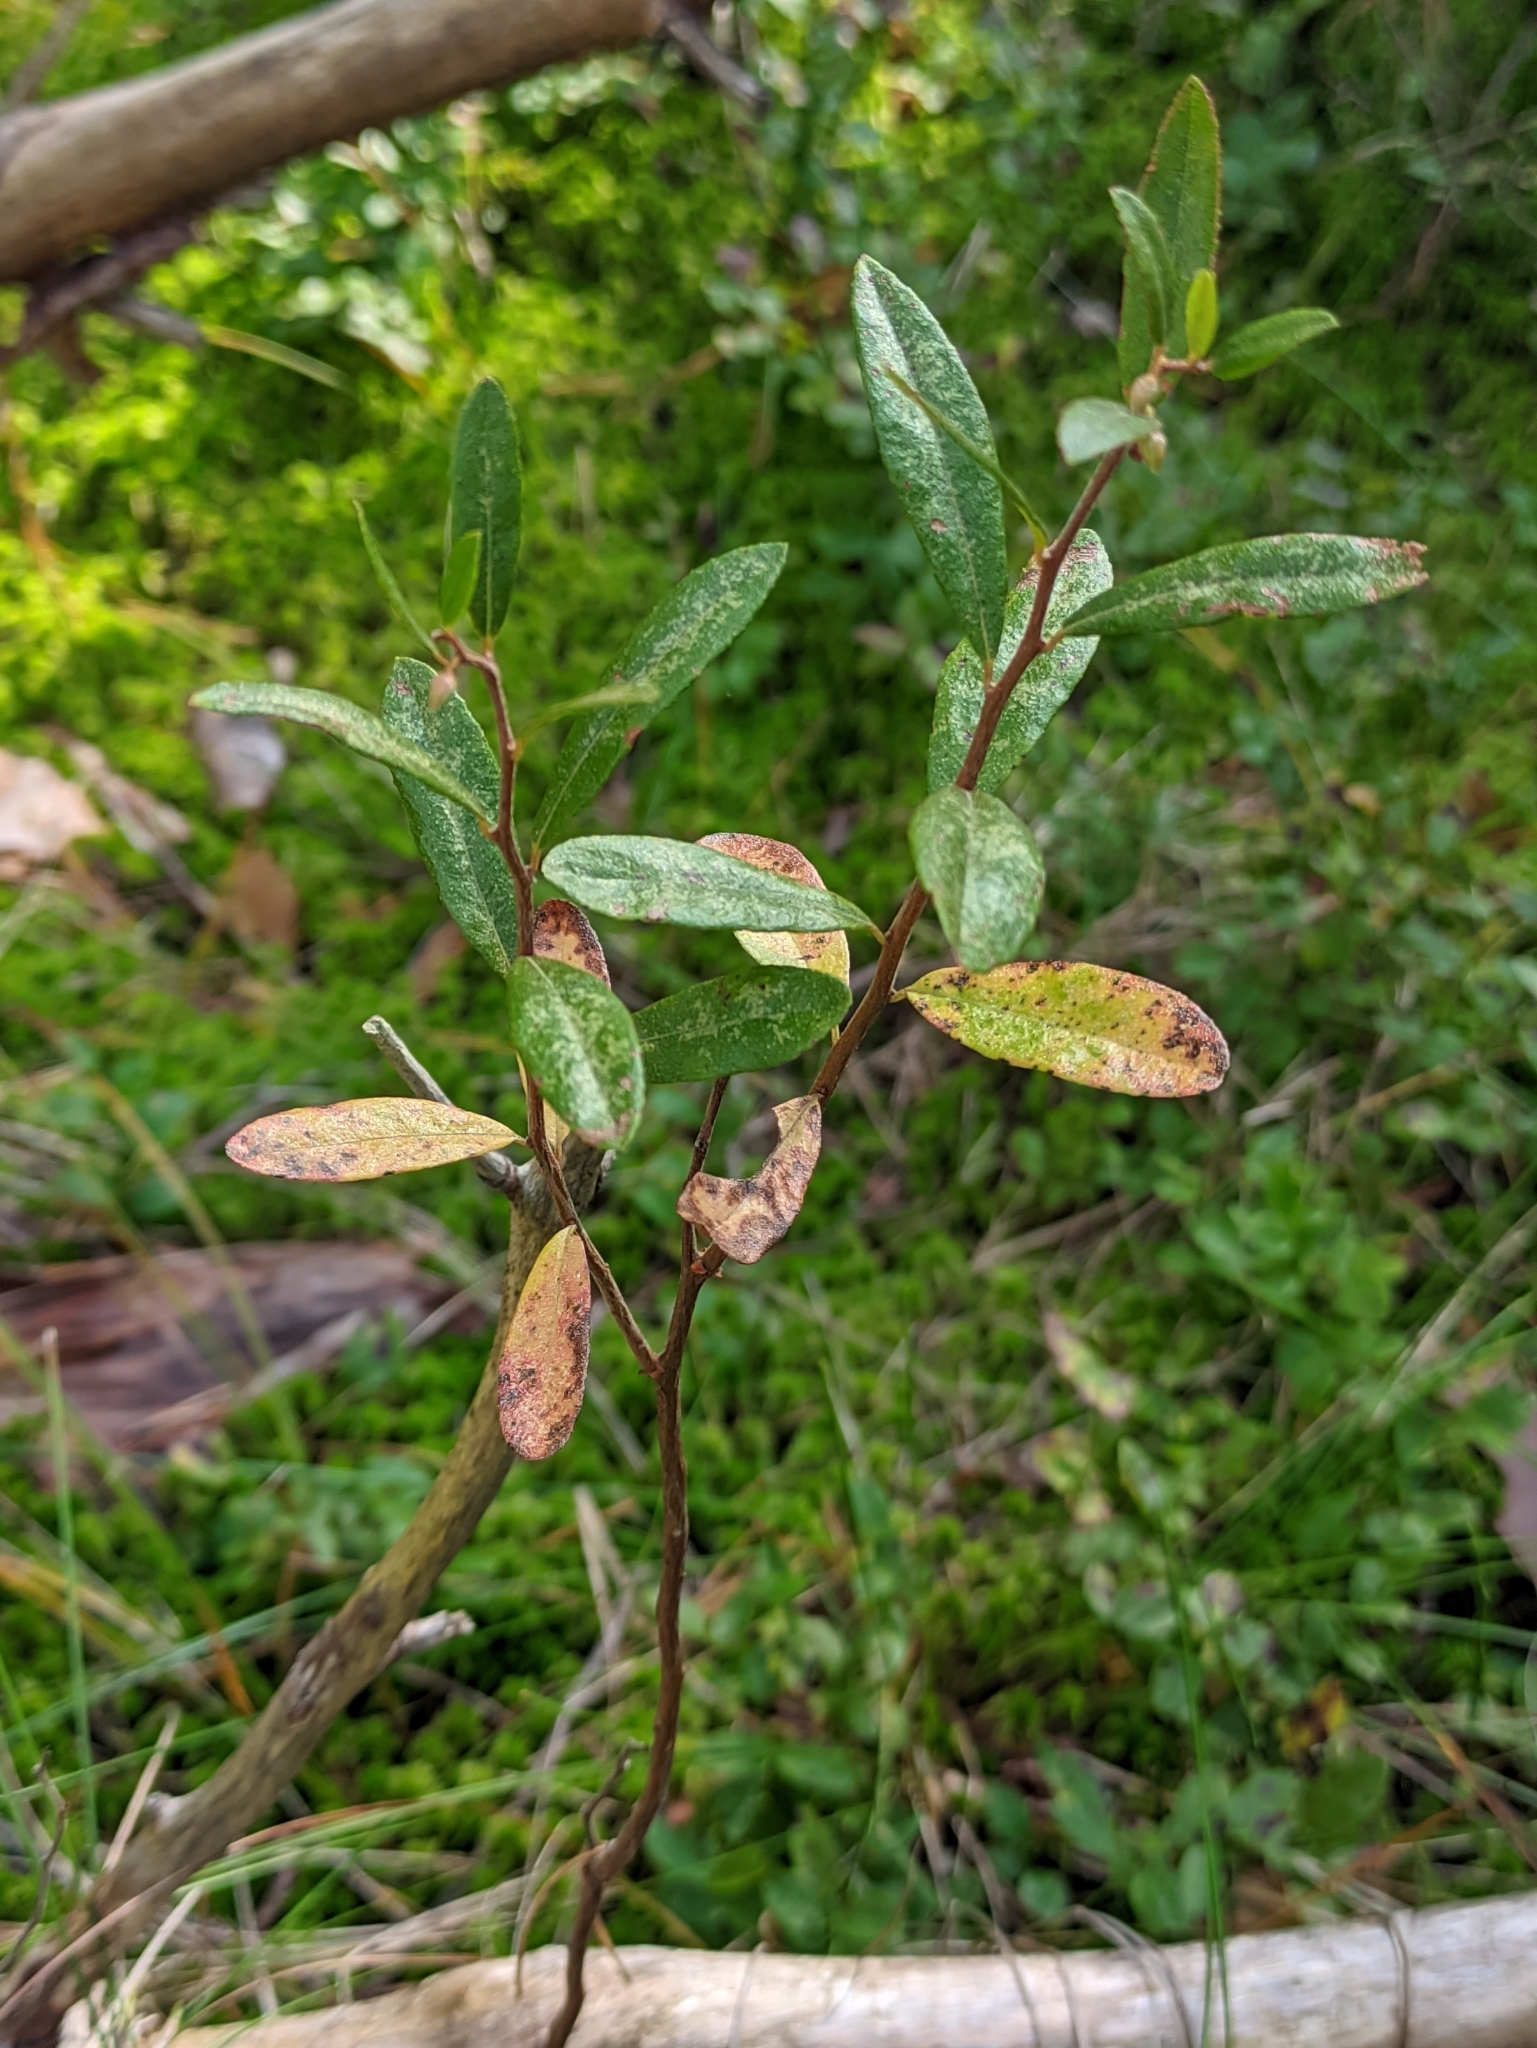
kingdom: Plantae
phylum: Tracheophyta
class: Magnoliopsida
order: Ericales
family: Ericaceae
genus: Chamaedaphne
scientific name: Chamaedaphne calyculata
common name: Leatherleaf
